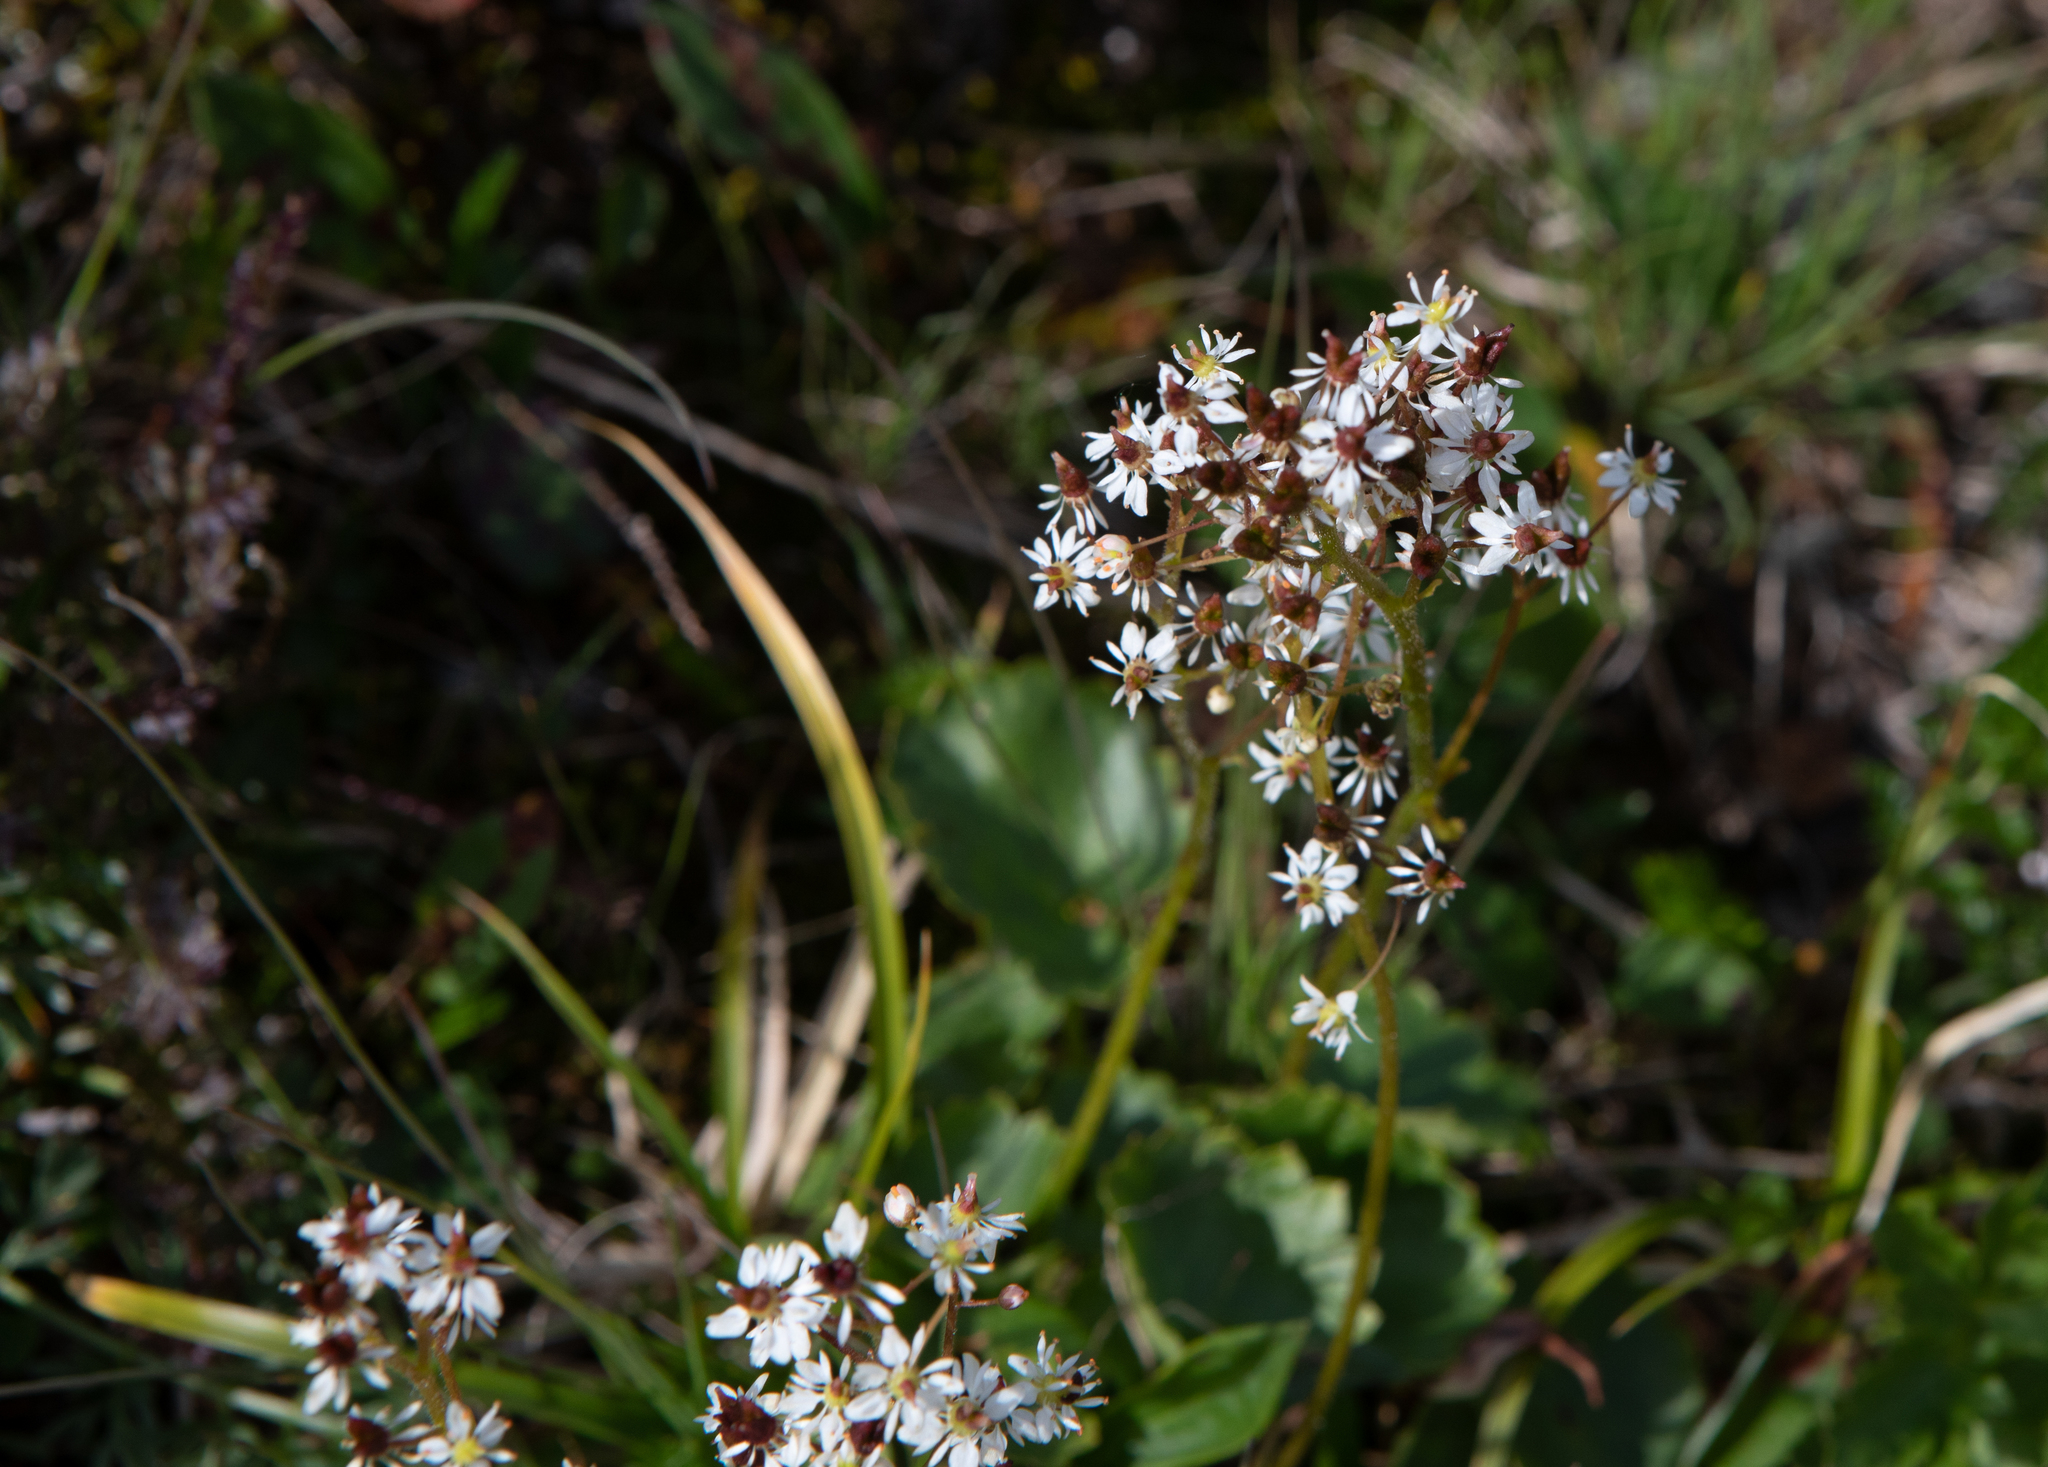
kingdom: Plantae
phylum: Tracheophyta
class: Magnoliopsida
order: Saxifragales
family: Saxifragaceae
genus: Micranthes
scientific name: Micranthes nelsoniana
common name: Nelson's saxifrage
